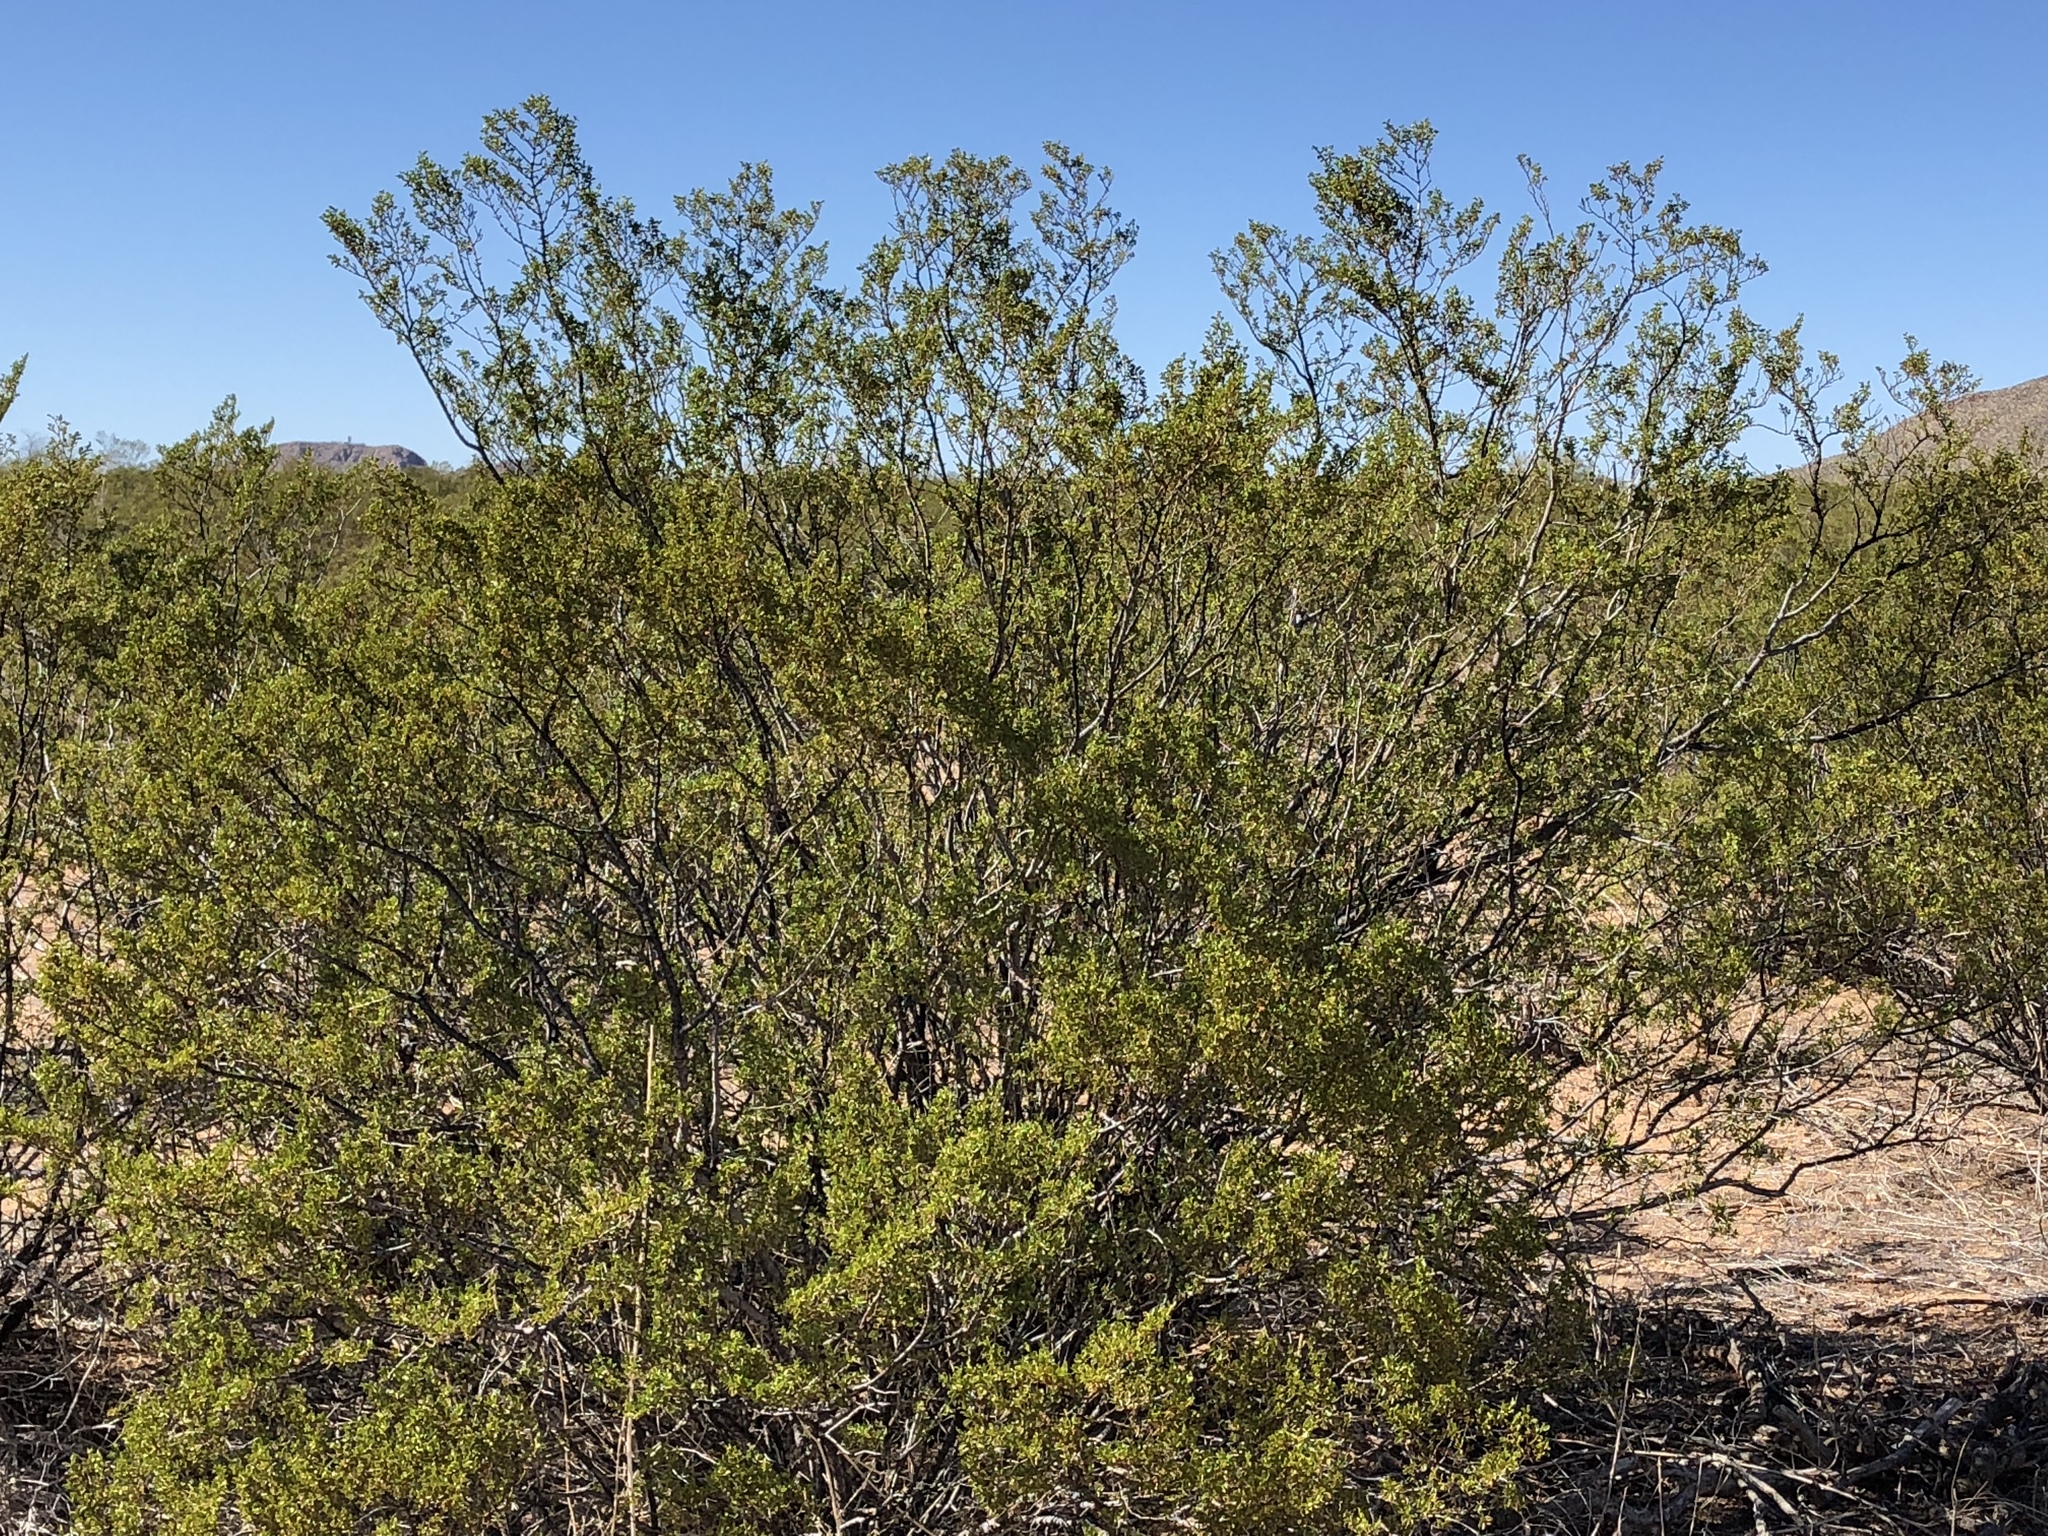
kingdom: Plantae
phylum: Tracheophyta
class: Magnoliopsida
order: Zygophyllales
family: Zygophyllaceae
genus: Larrea
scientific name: Larrea tridentata
